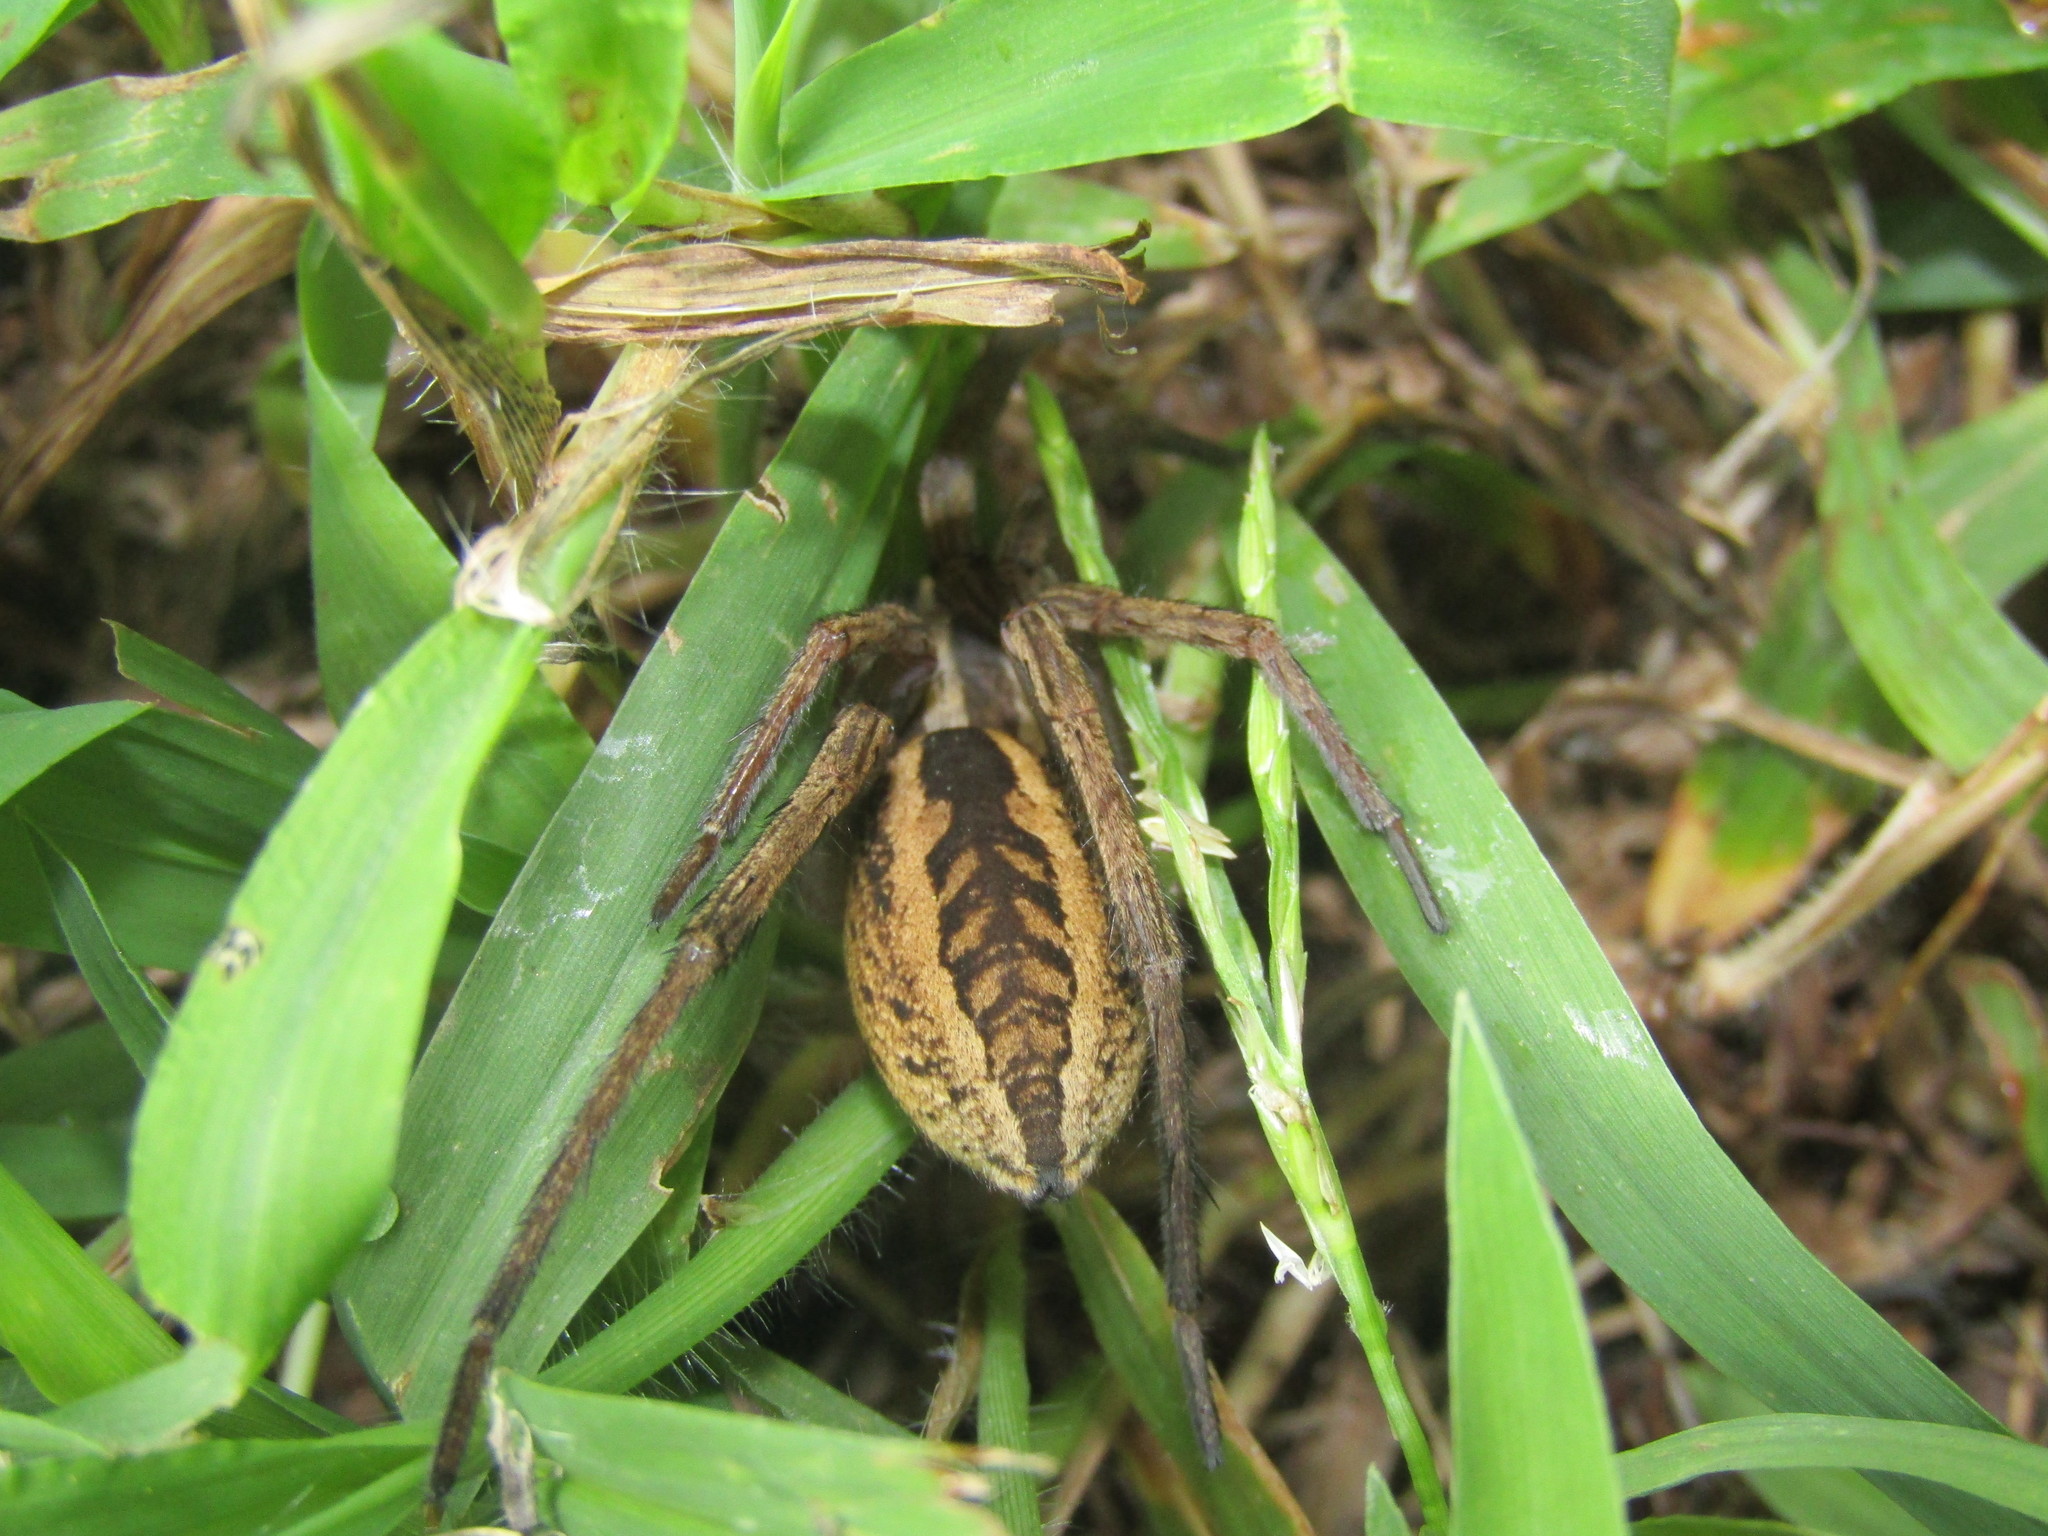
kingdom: Animalia
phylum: Arthropoda
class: Arachnida
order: Araneae
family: Lycosidae
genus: Rabidosa
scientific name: Rabidosa rabida
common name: Rabid wolf spider
